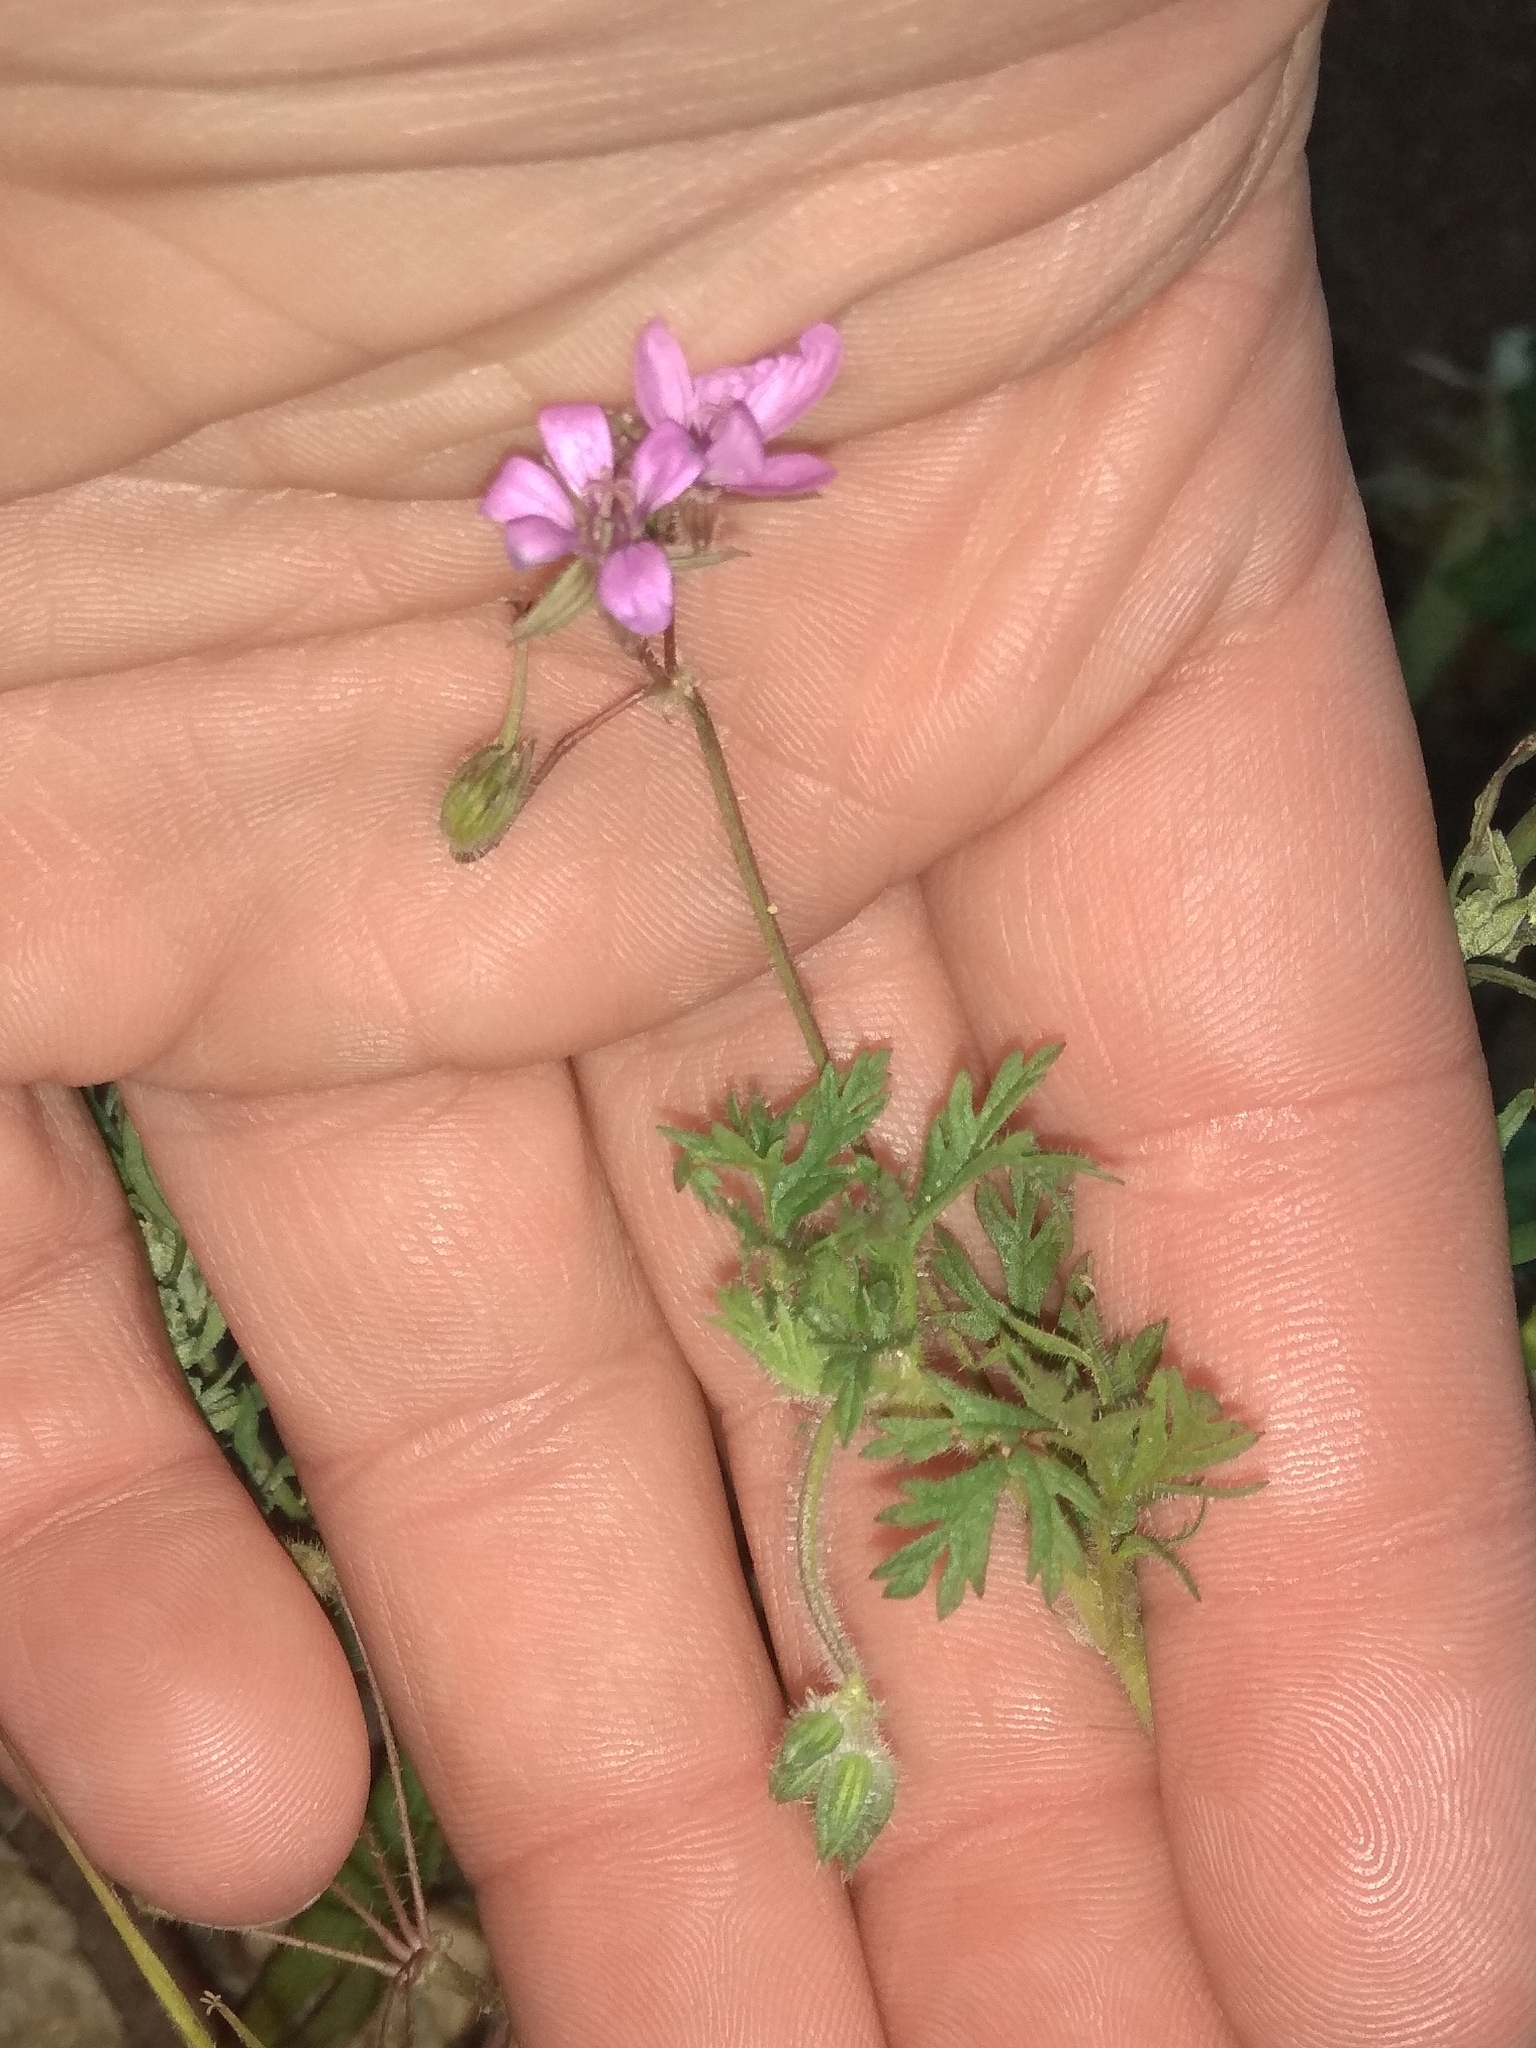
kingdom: Plantae
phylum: Tracheophyta
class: Magnoliopsida
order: Geraniales
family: Geraniaceae
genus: Erodium
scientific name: Erodium cicutarium
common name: Common stork's-bill
